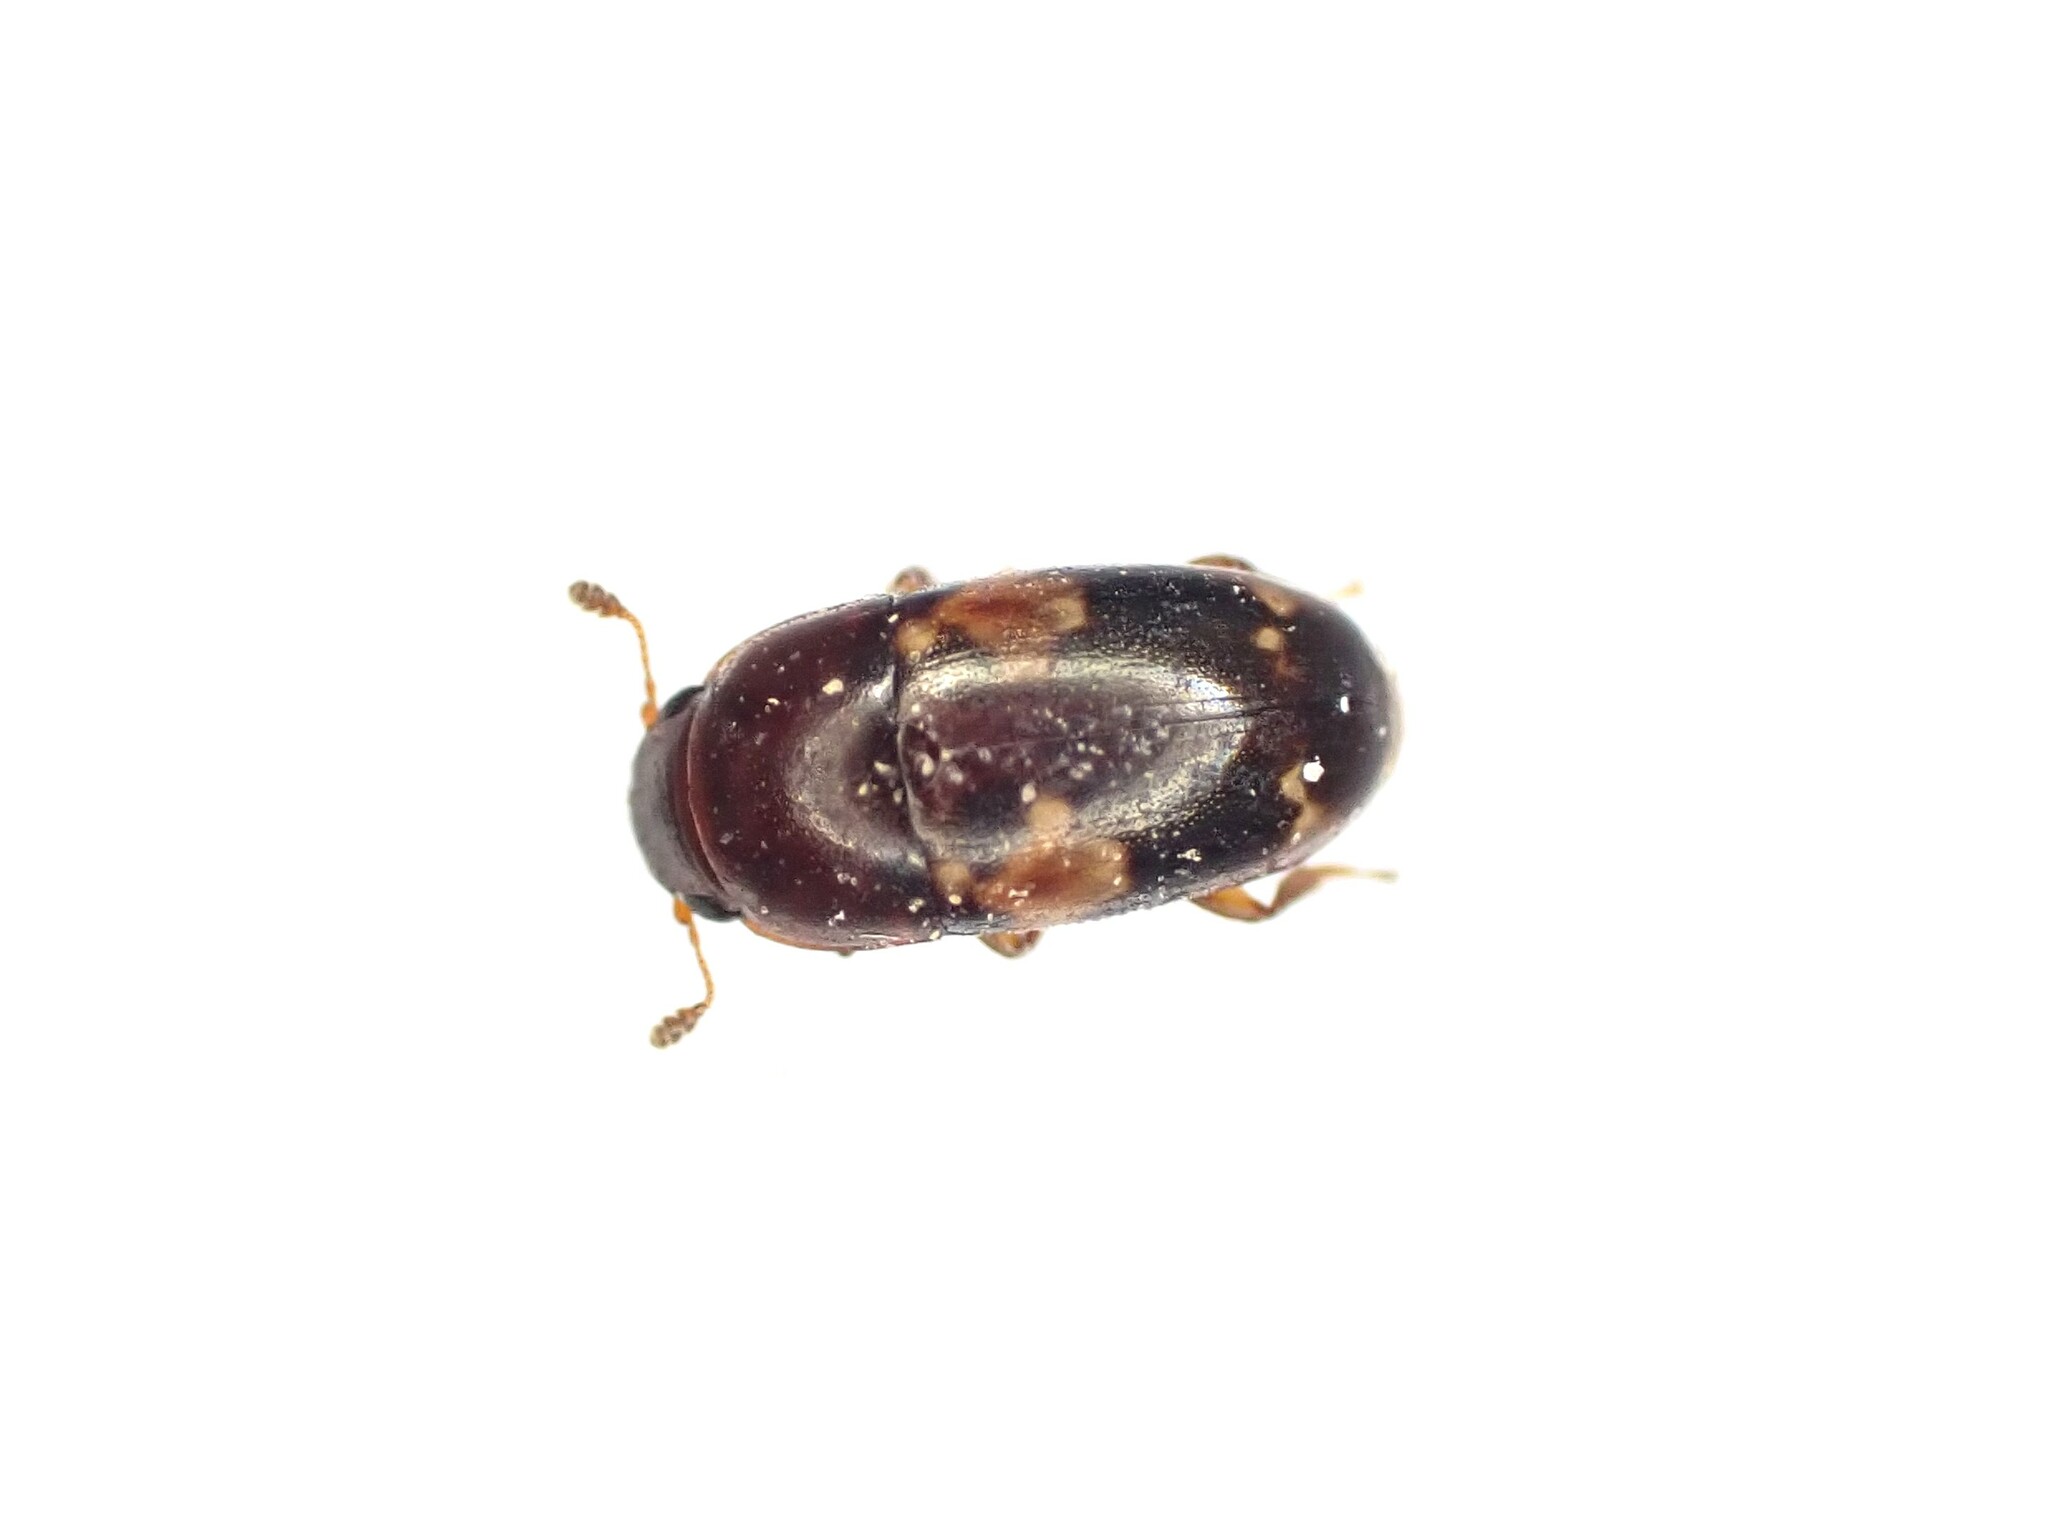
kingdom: Animalia
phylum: Arthropoda
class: Insecta
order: Coleoptera
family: Nitidulidae
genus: Cryptarcha
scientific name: Cryptarcha
